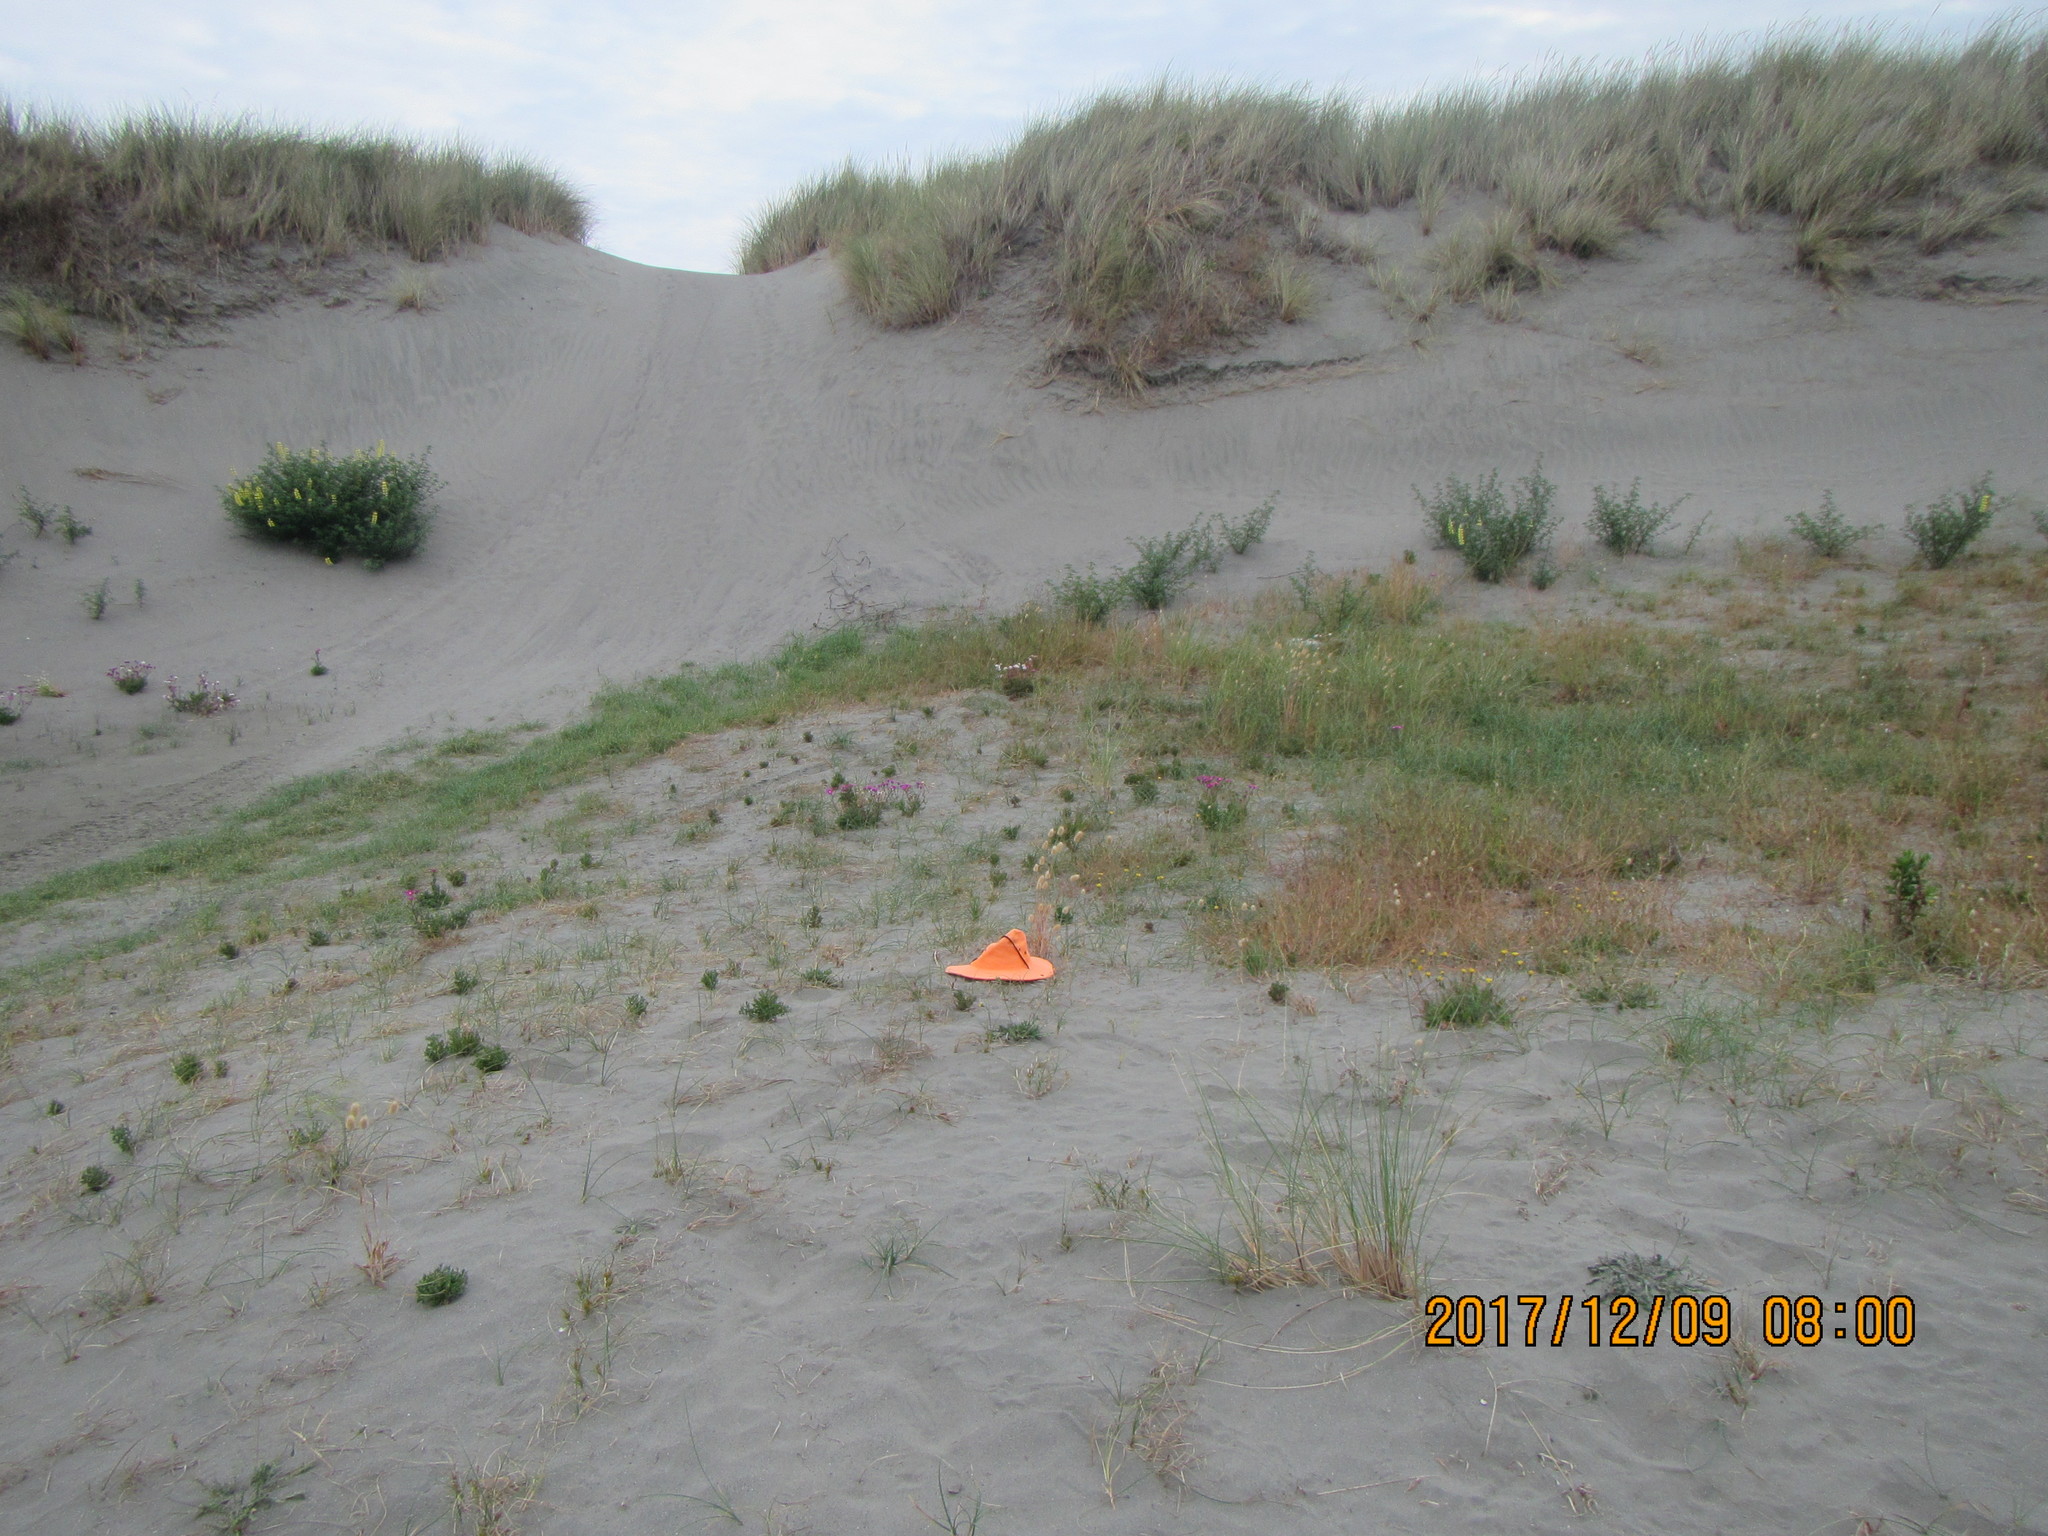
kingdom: Plantae
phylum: Tracheophyta
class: Liliopsida
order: Poales
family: Poaceae
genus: Lagurus
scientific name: Lagurus ovatus
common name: Hare's-tail
